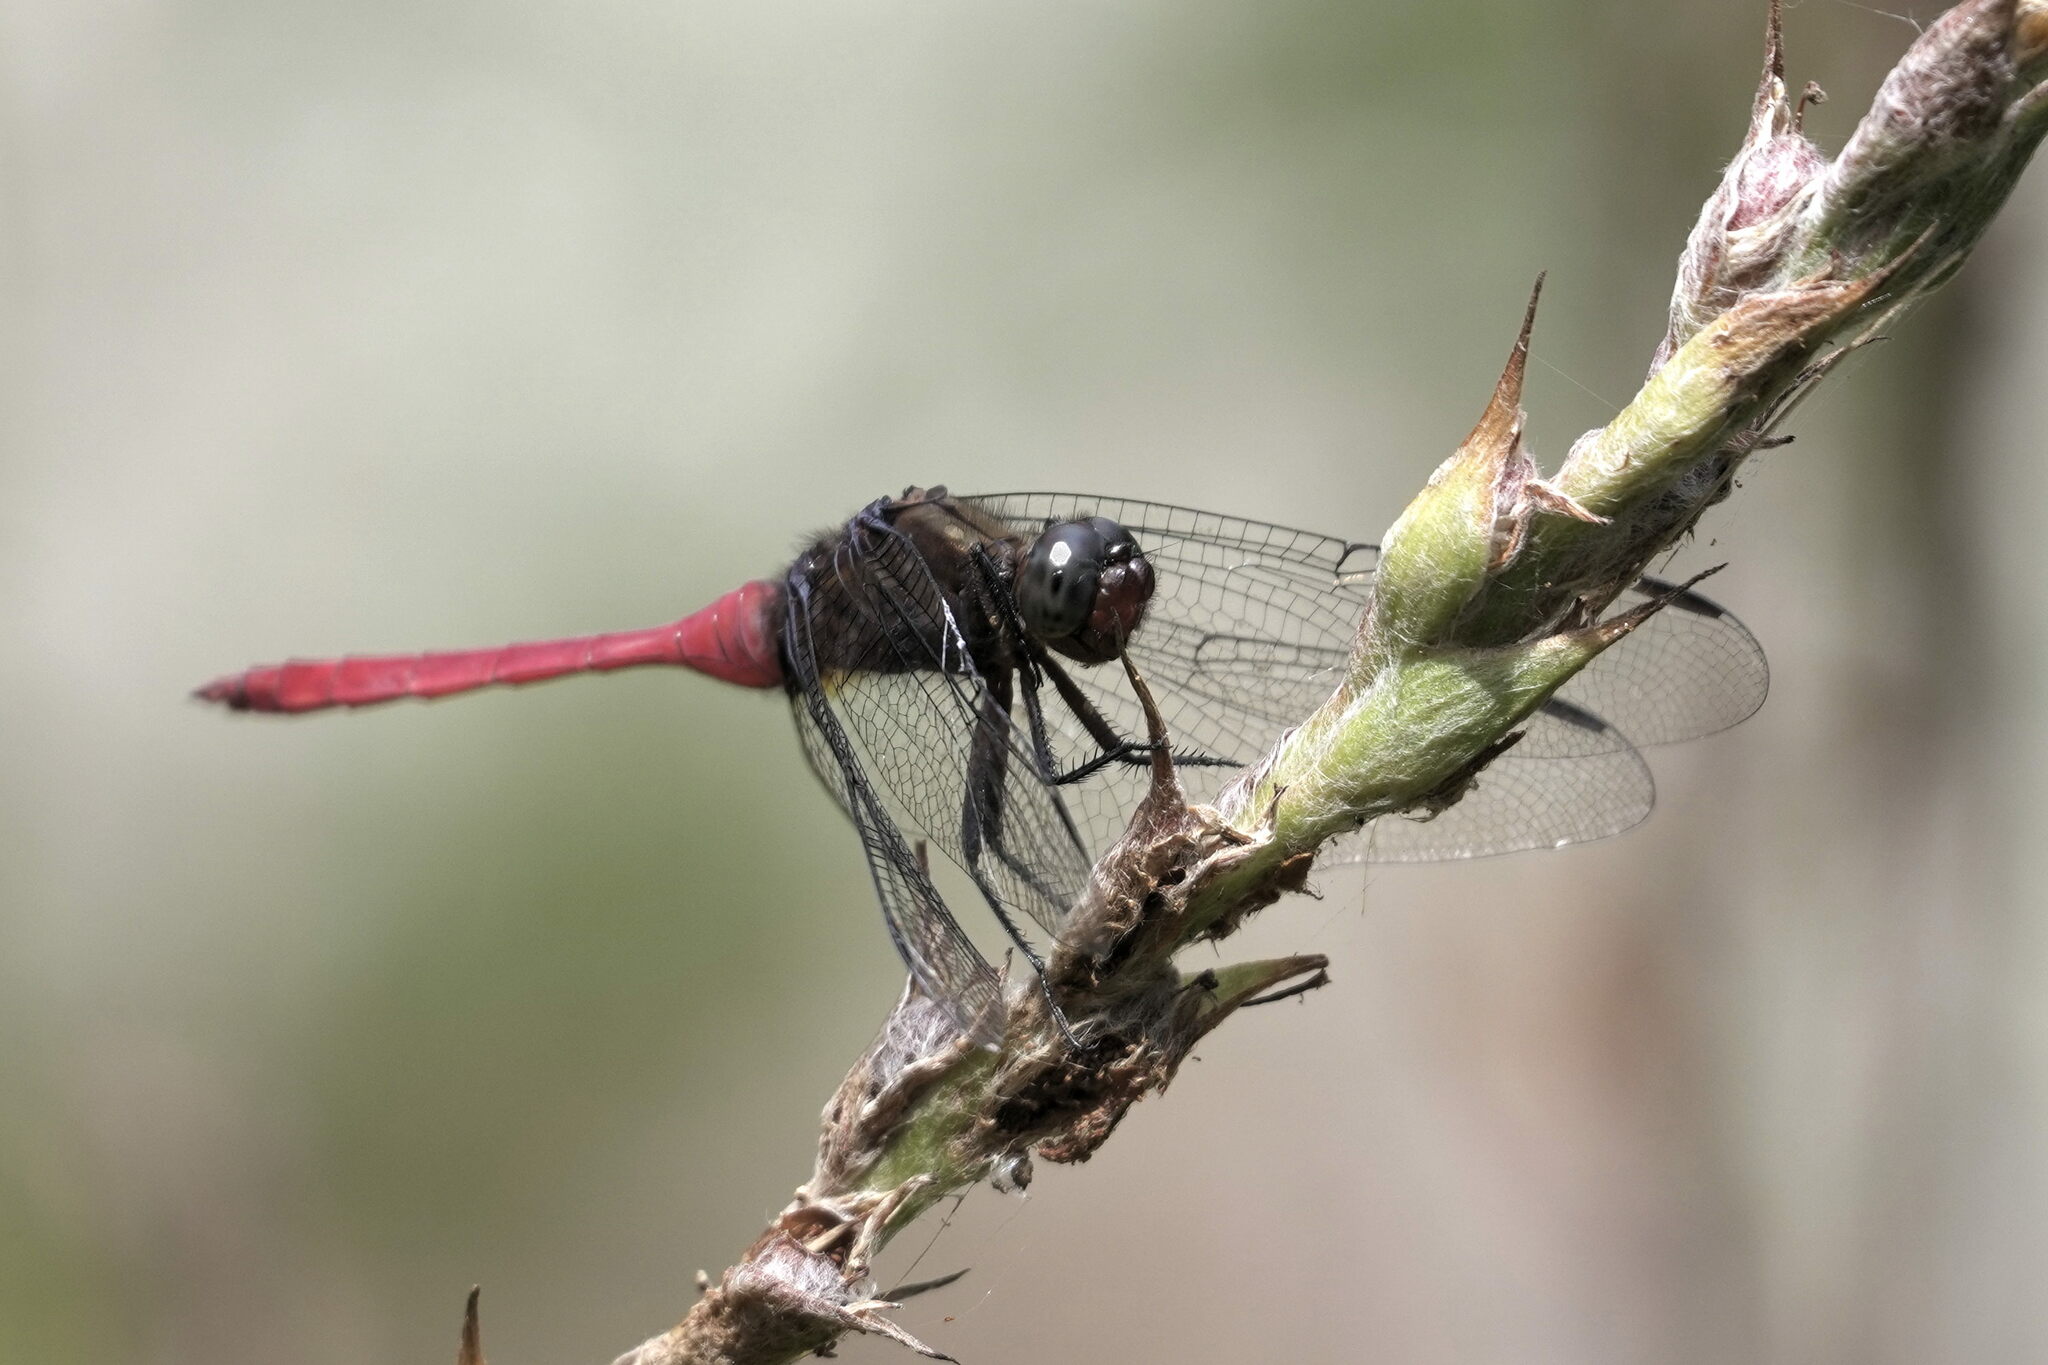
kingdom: Animalia
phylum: Arthropoda
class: Insecta
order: Odonata
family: Libellulidae
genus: Orthetrum
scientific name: Orthetrum villosovittatum
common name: Firery skimmer
